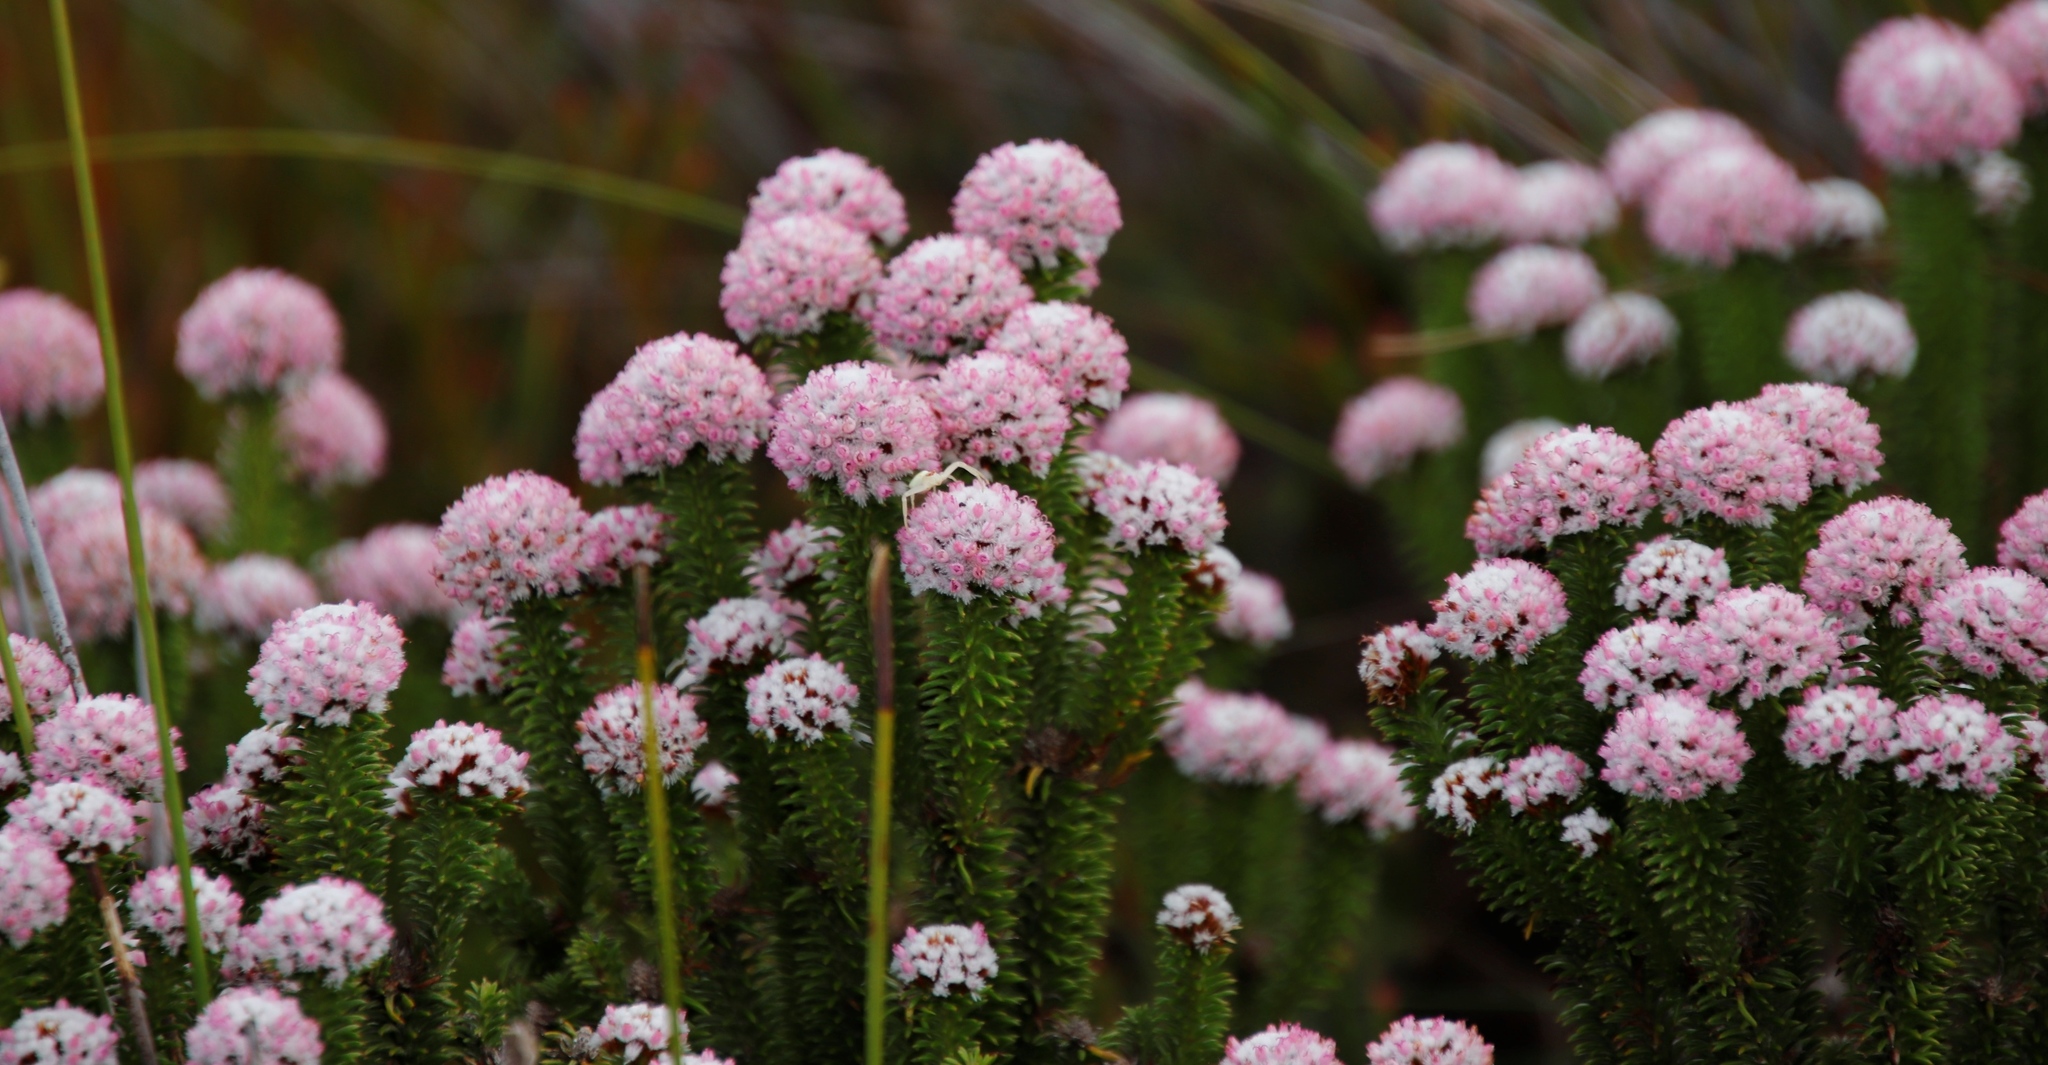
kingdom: Plantae
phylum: Tracheophyta
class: Magnoliopsida
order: Asterales
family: Asteraceae
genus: Stoebe
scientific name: Stoebe rosea
